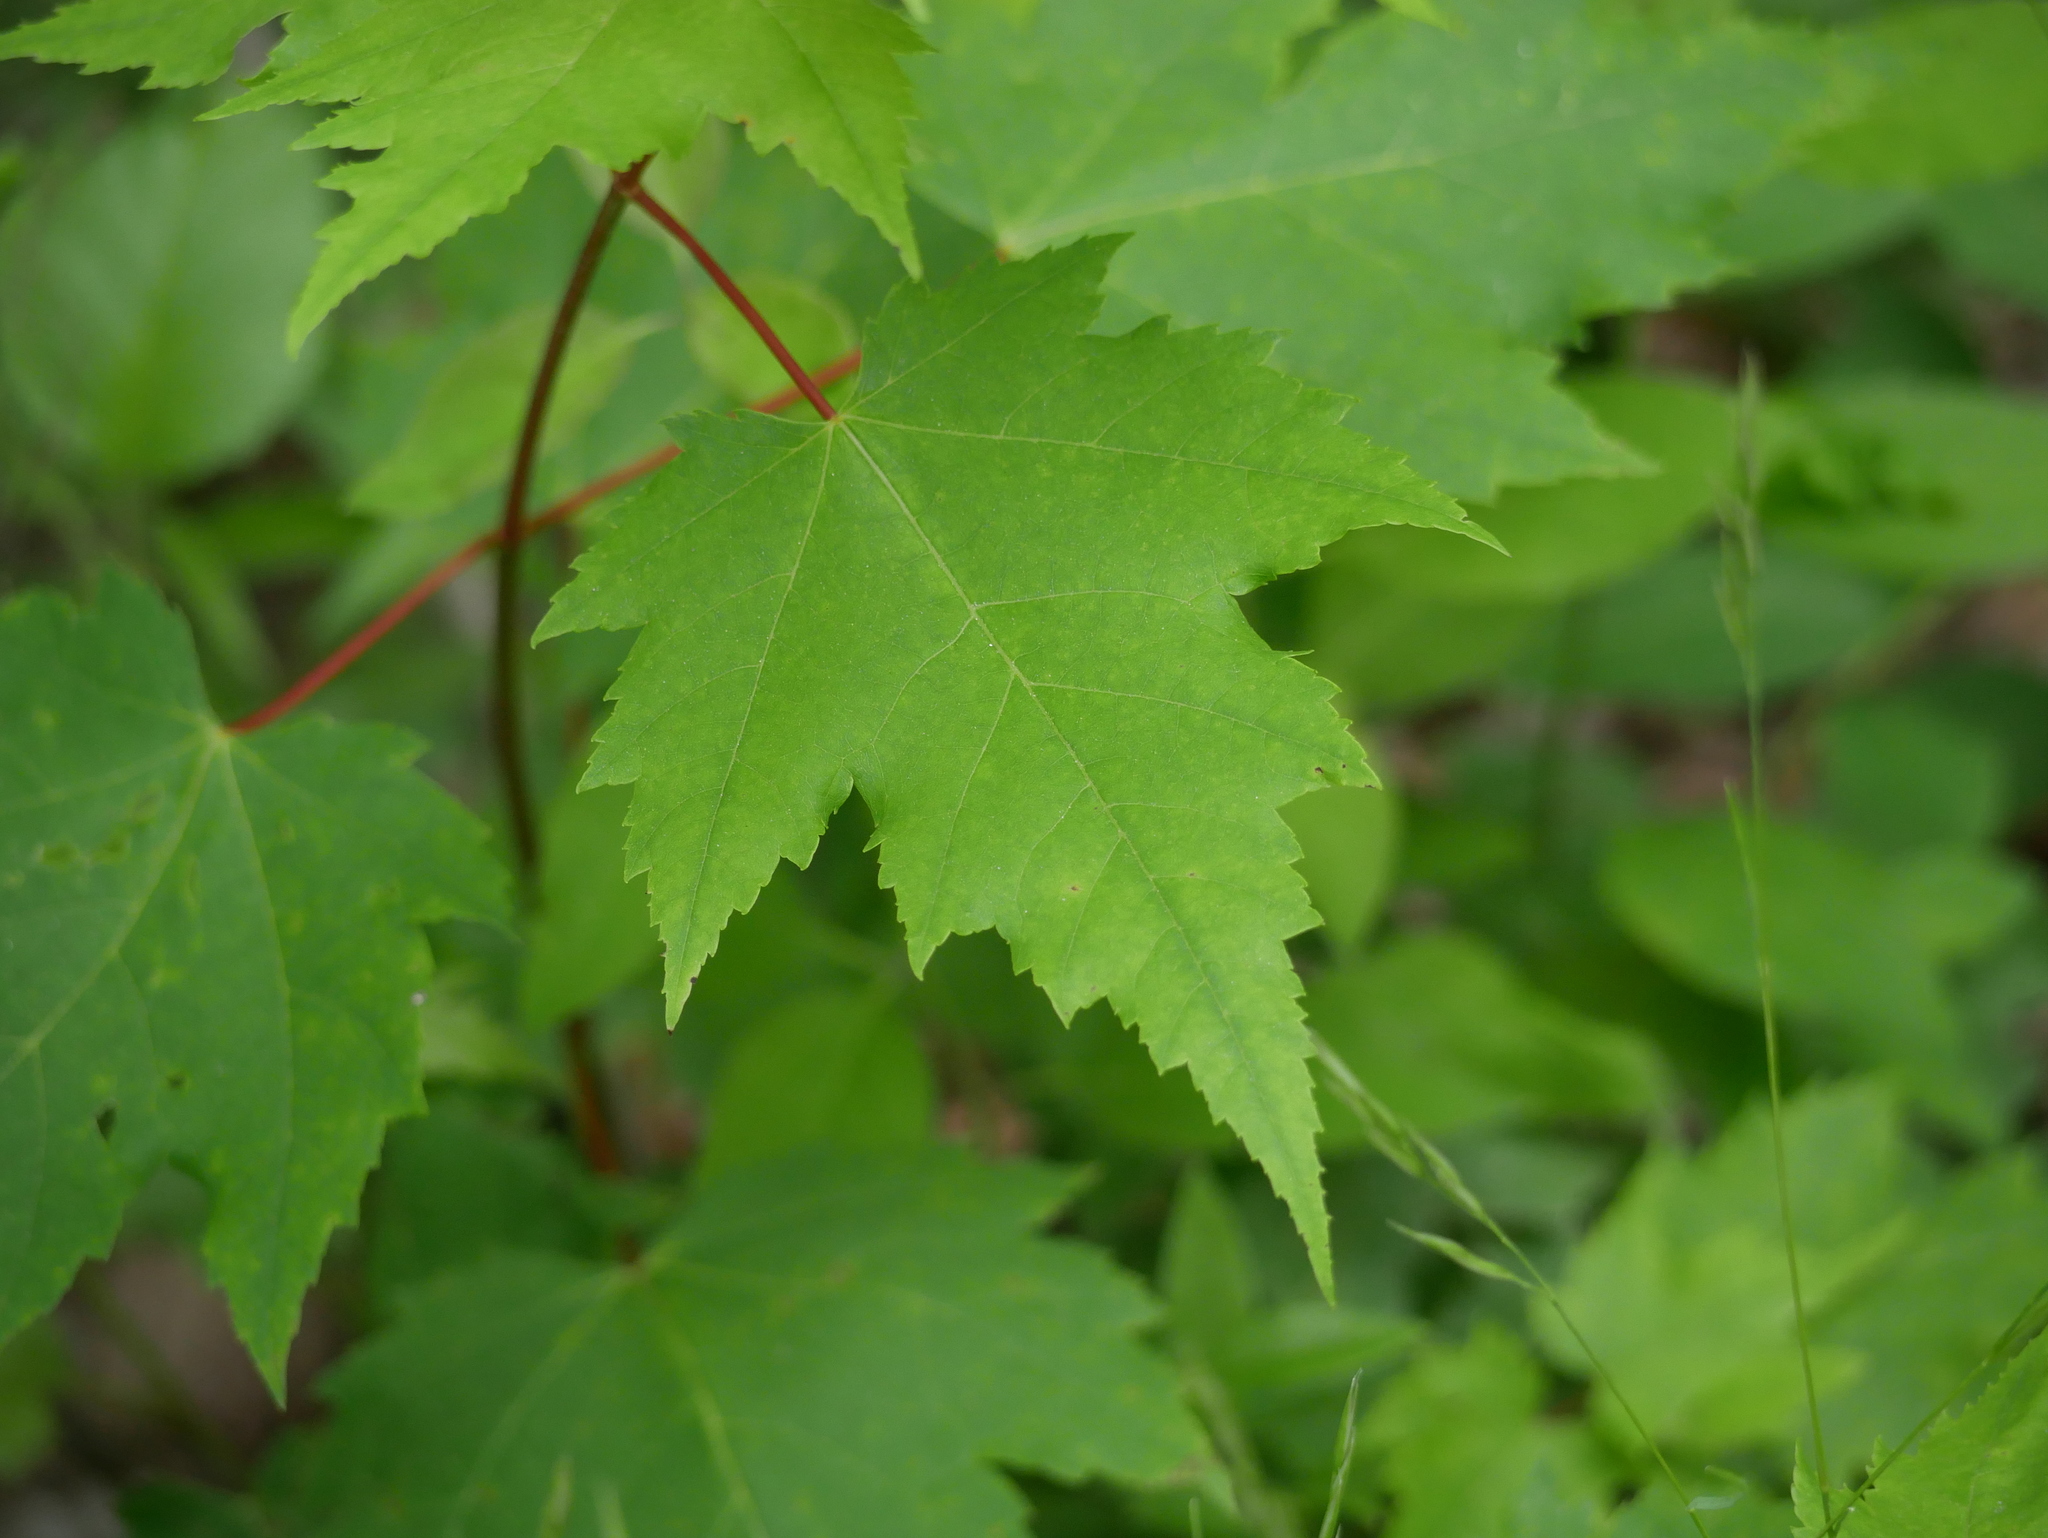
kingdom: Plantae
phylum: Tracheophyta
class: Magnoliopsida
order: Sapindales
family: Sapindaceae
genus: Acer
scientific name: Acer rubrum
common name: Red maple
